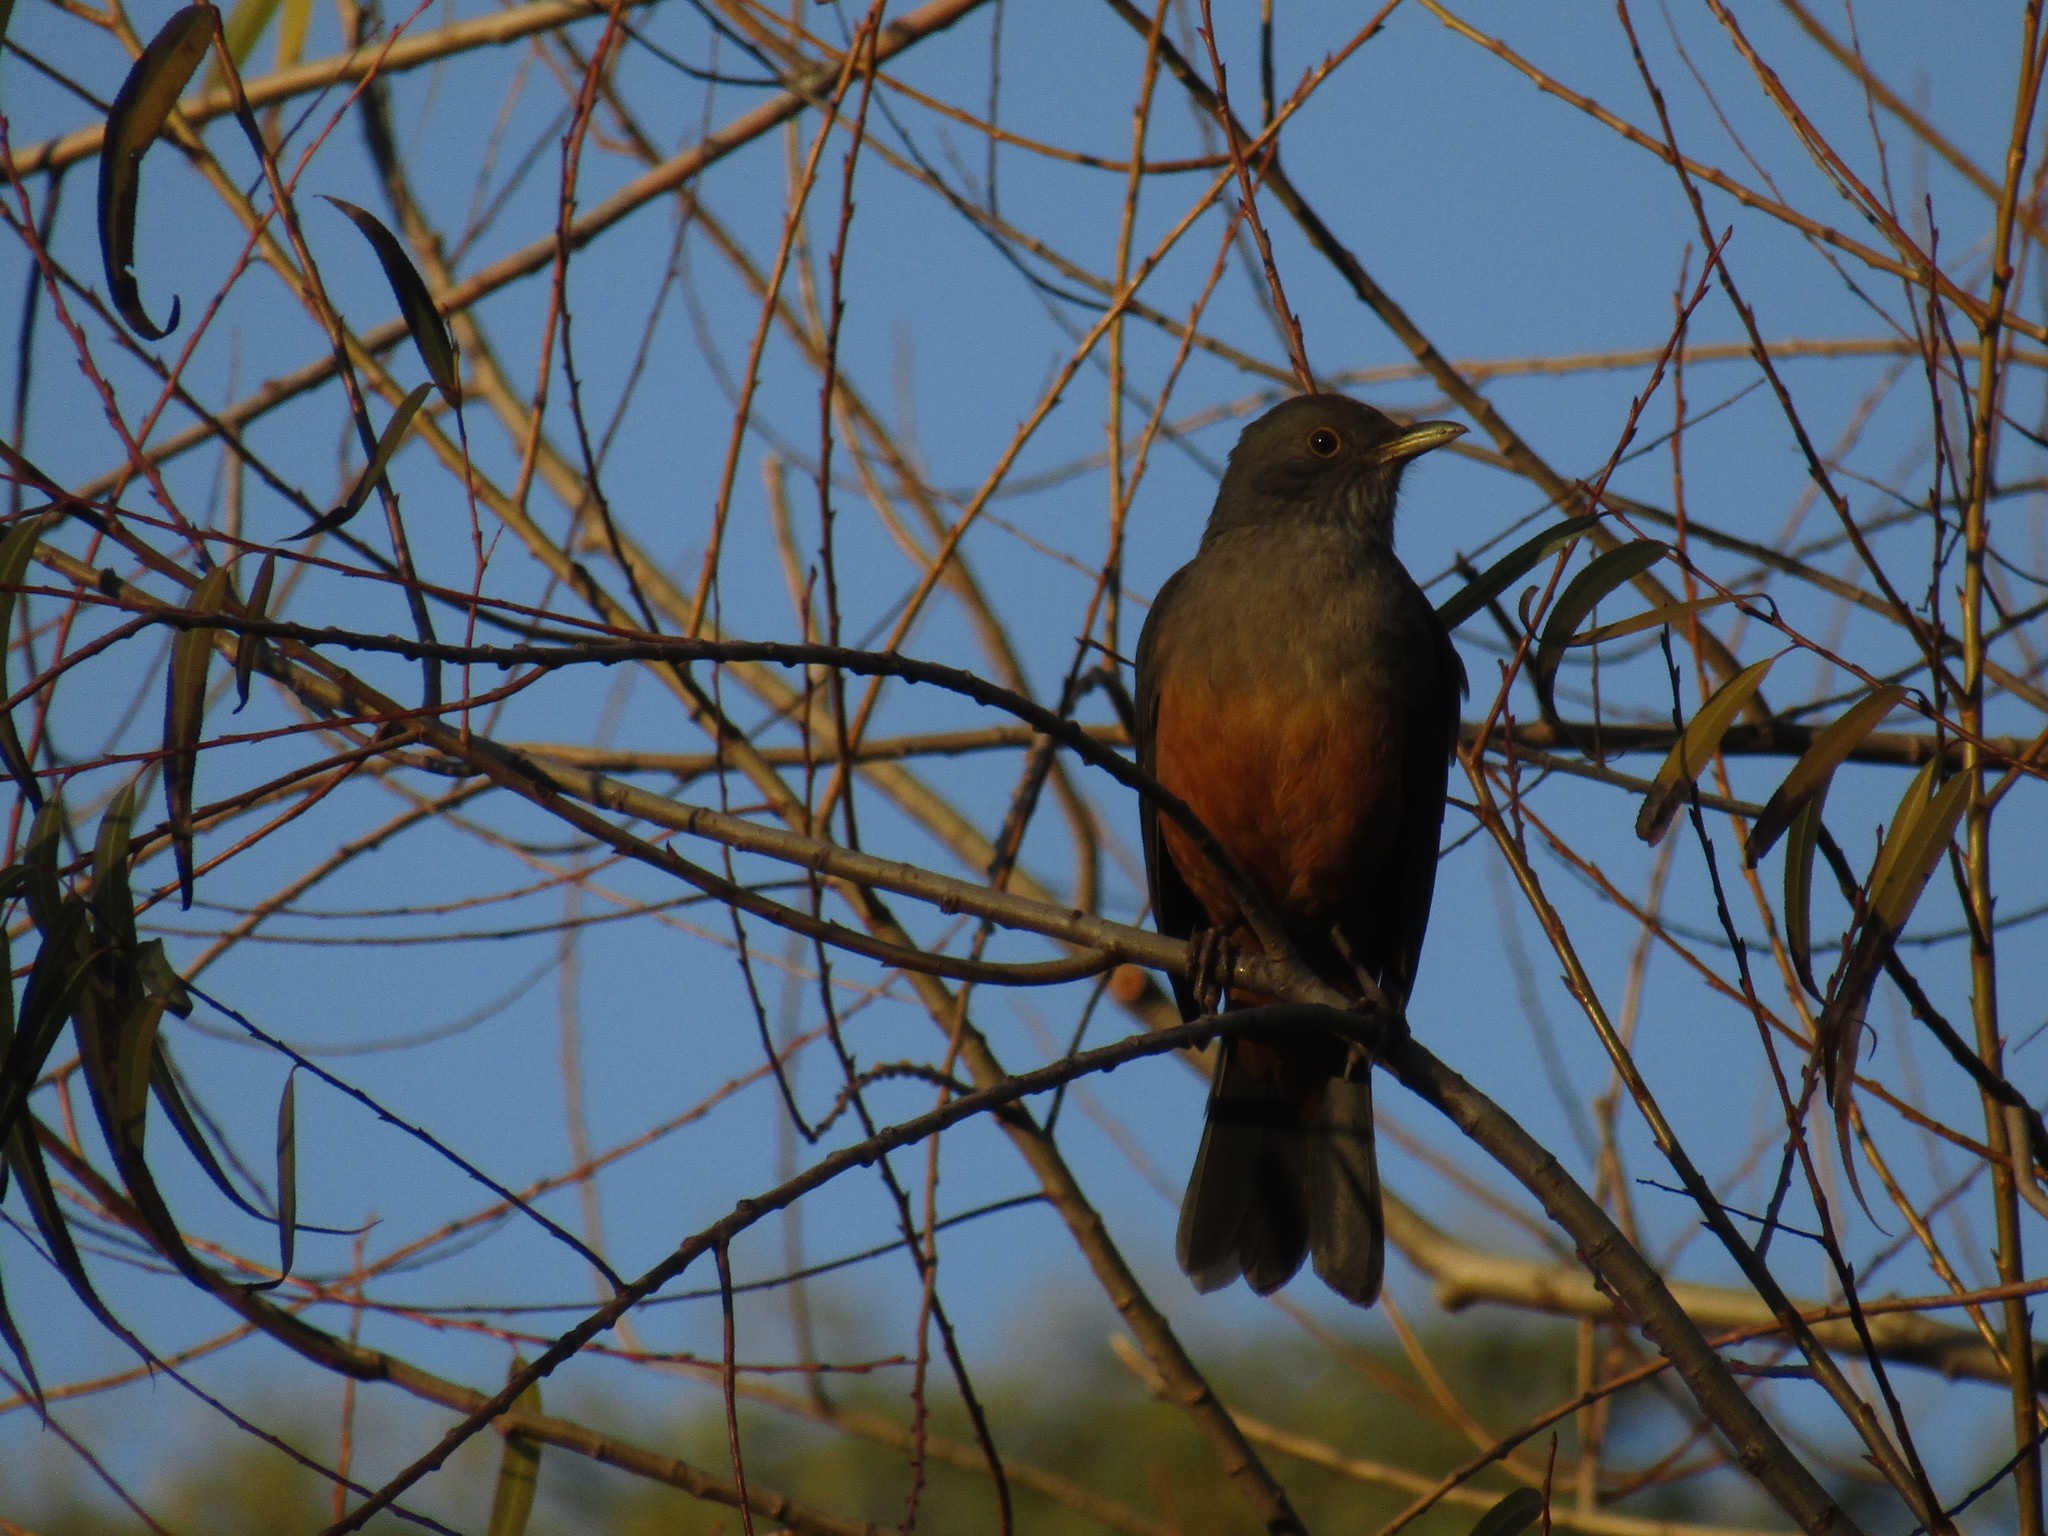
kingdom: Animalia
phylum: Chordata
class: Aves
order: Passeriformes
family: Turdidae
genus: Turdus
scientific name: Turdus rufiventris
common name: Rufous-bellied thrush
